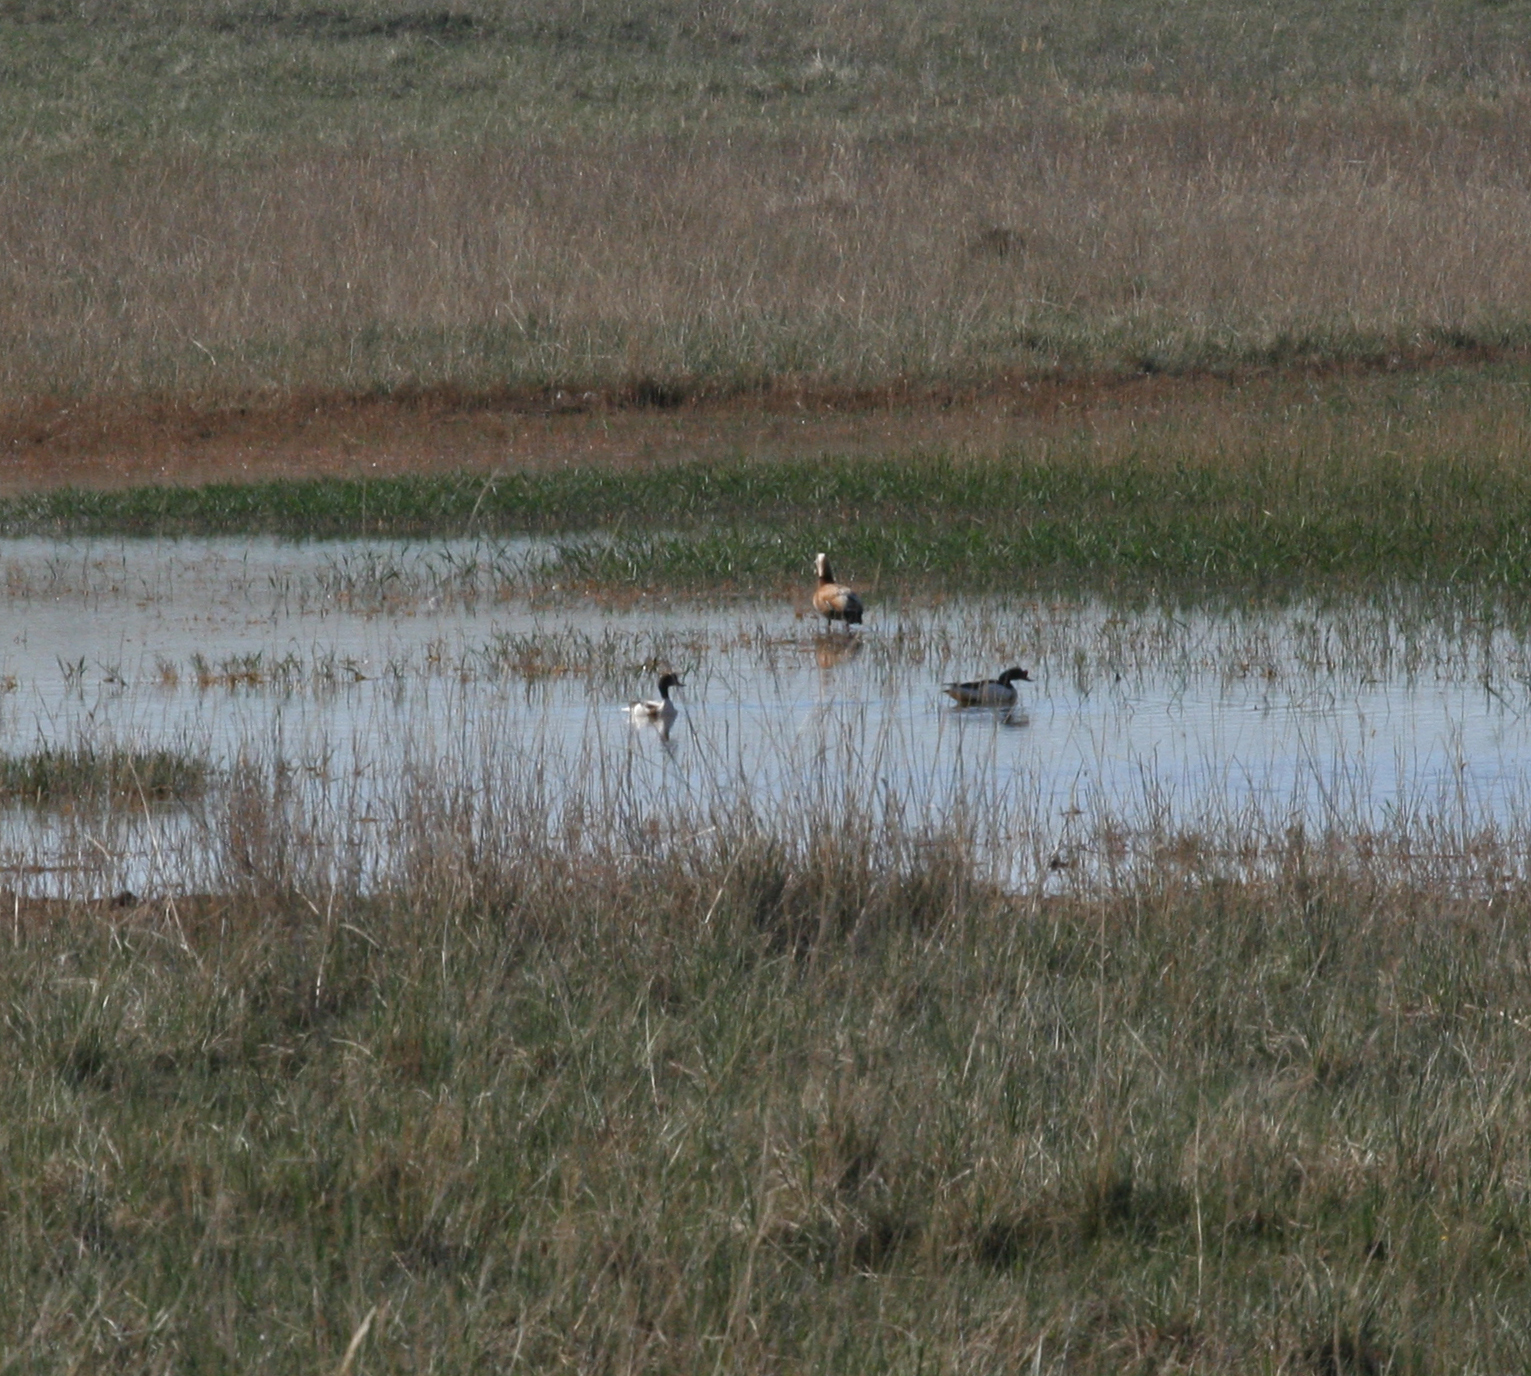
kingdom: Animalia
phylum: Chordata
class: Aves
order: Anseriformes
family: Anatidae
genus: Tadorna
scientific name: Tadorna ferruginea
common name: Ruddy shelduck
